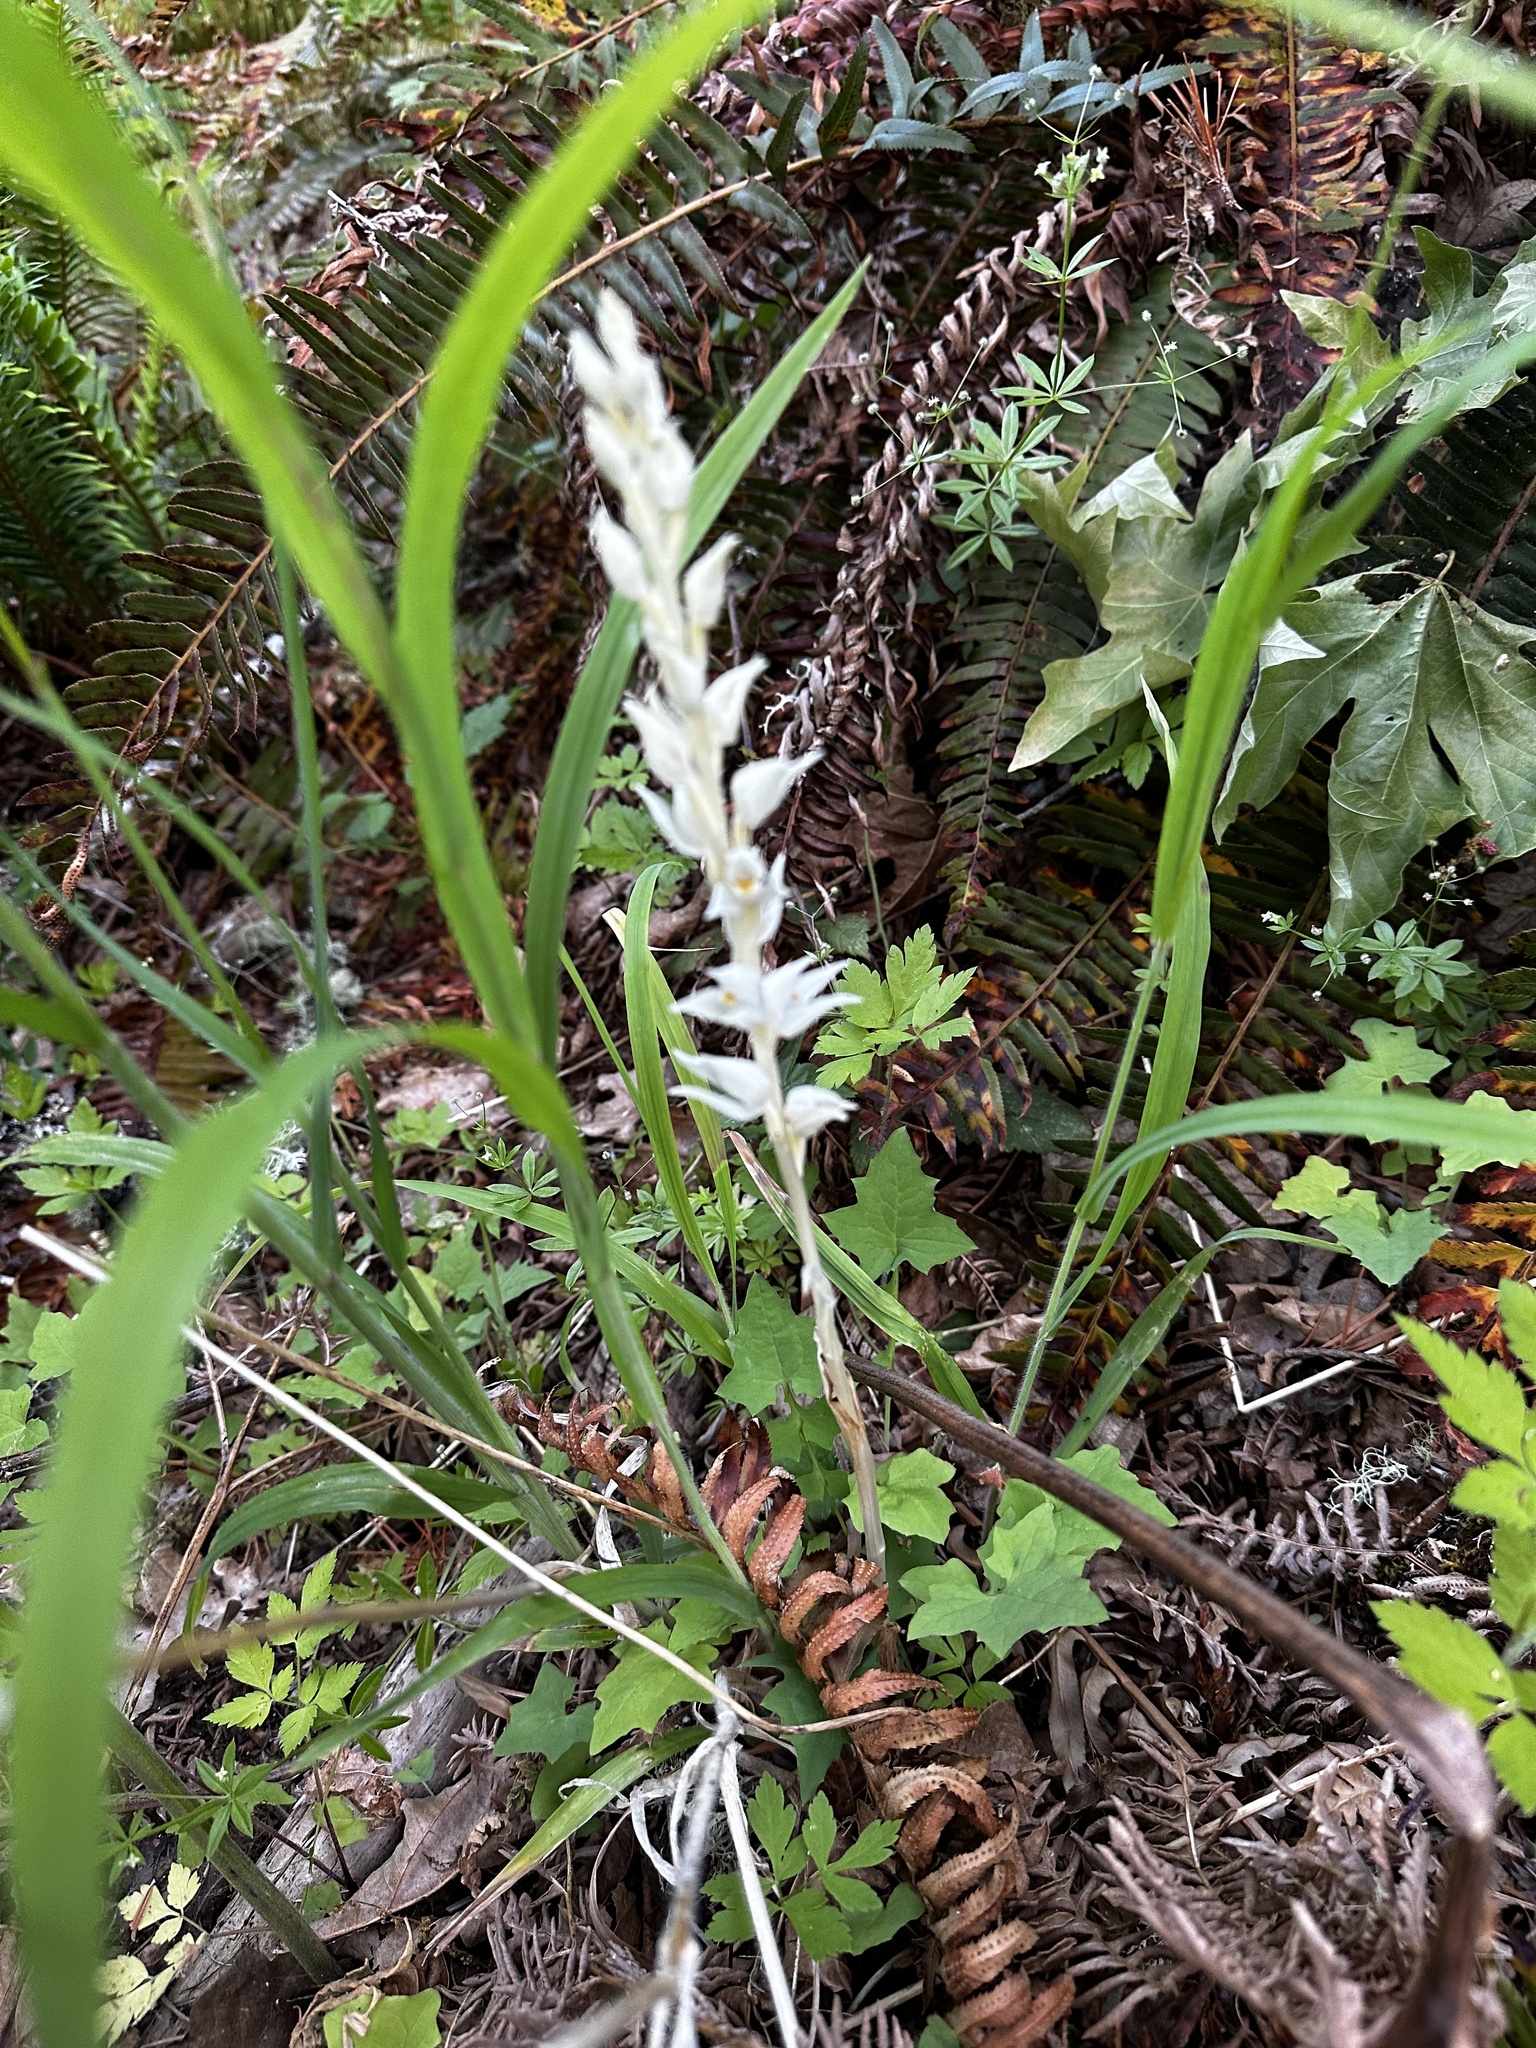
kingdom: Plantae
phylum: Tracheophyta
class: Liliopsida
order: Asparagales
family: Orchidaceae
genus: Cephalanthera
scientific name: Cephalanthera austiniae
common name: Phantom orchid
